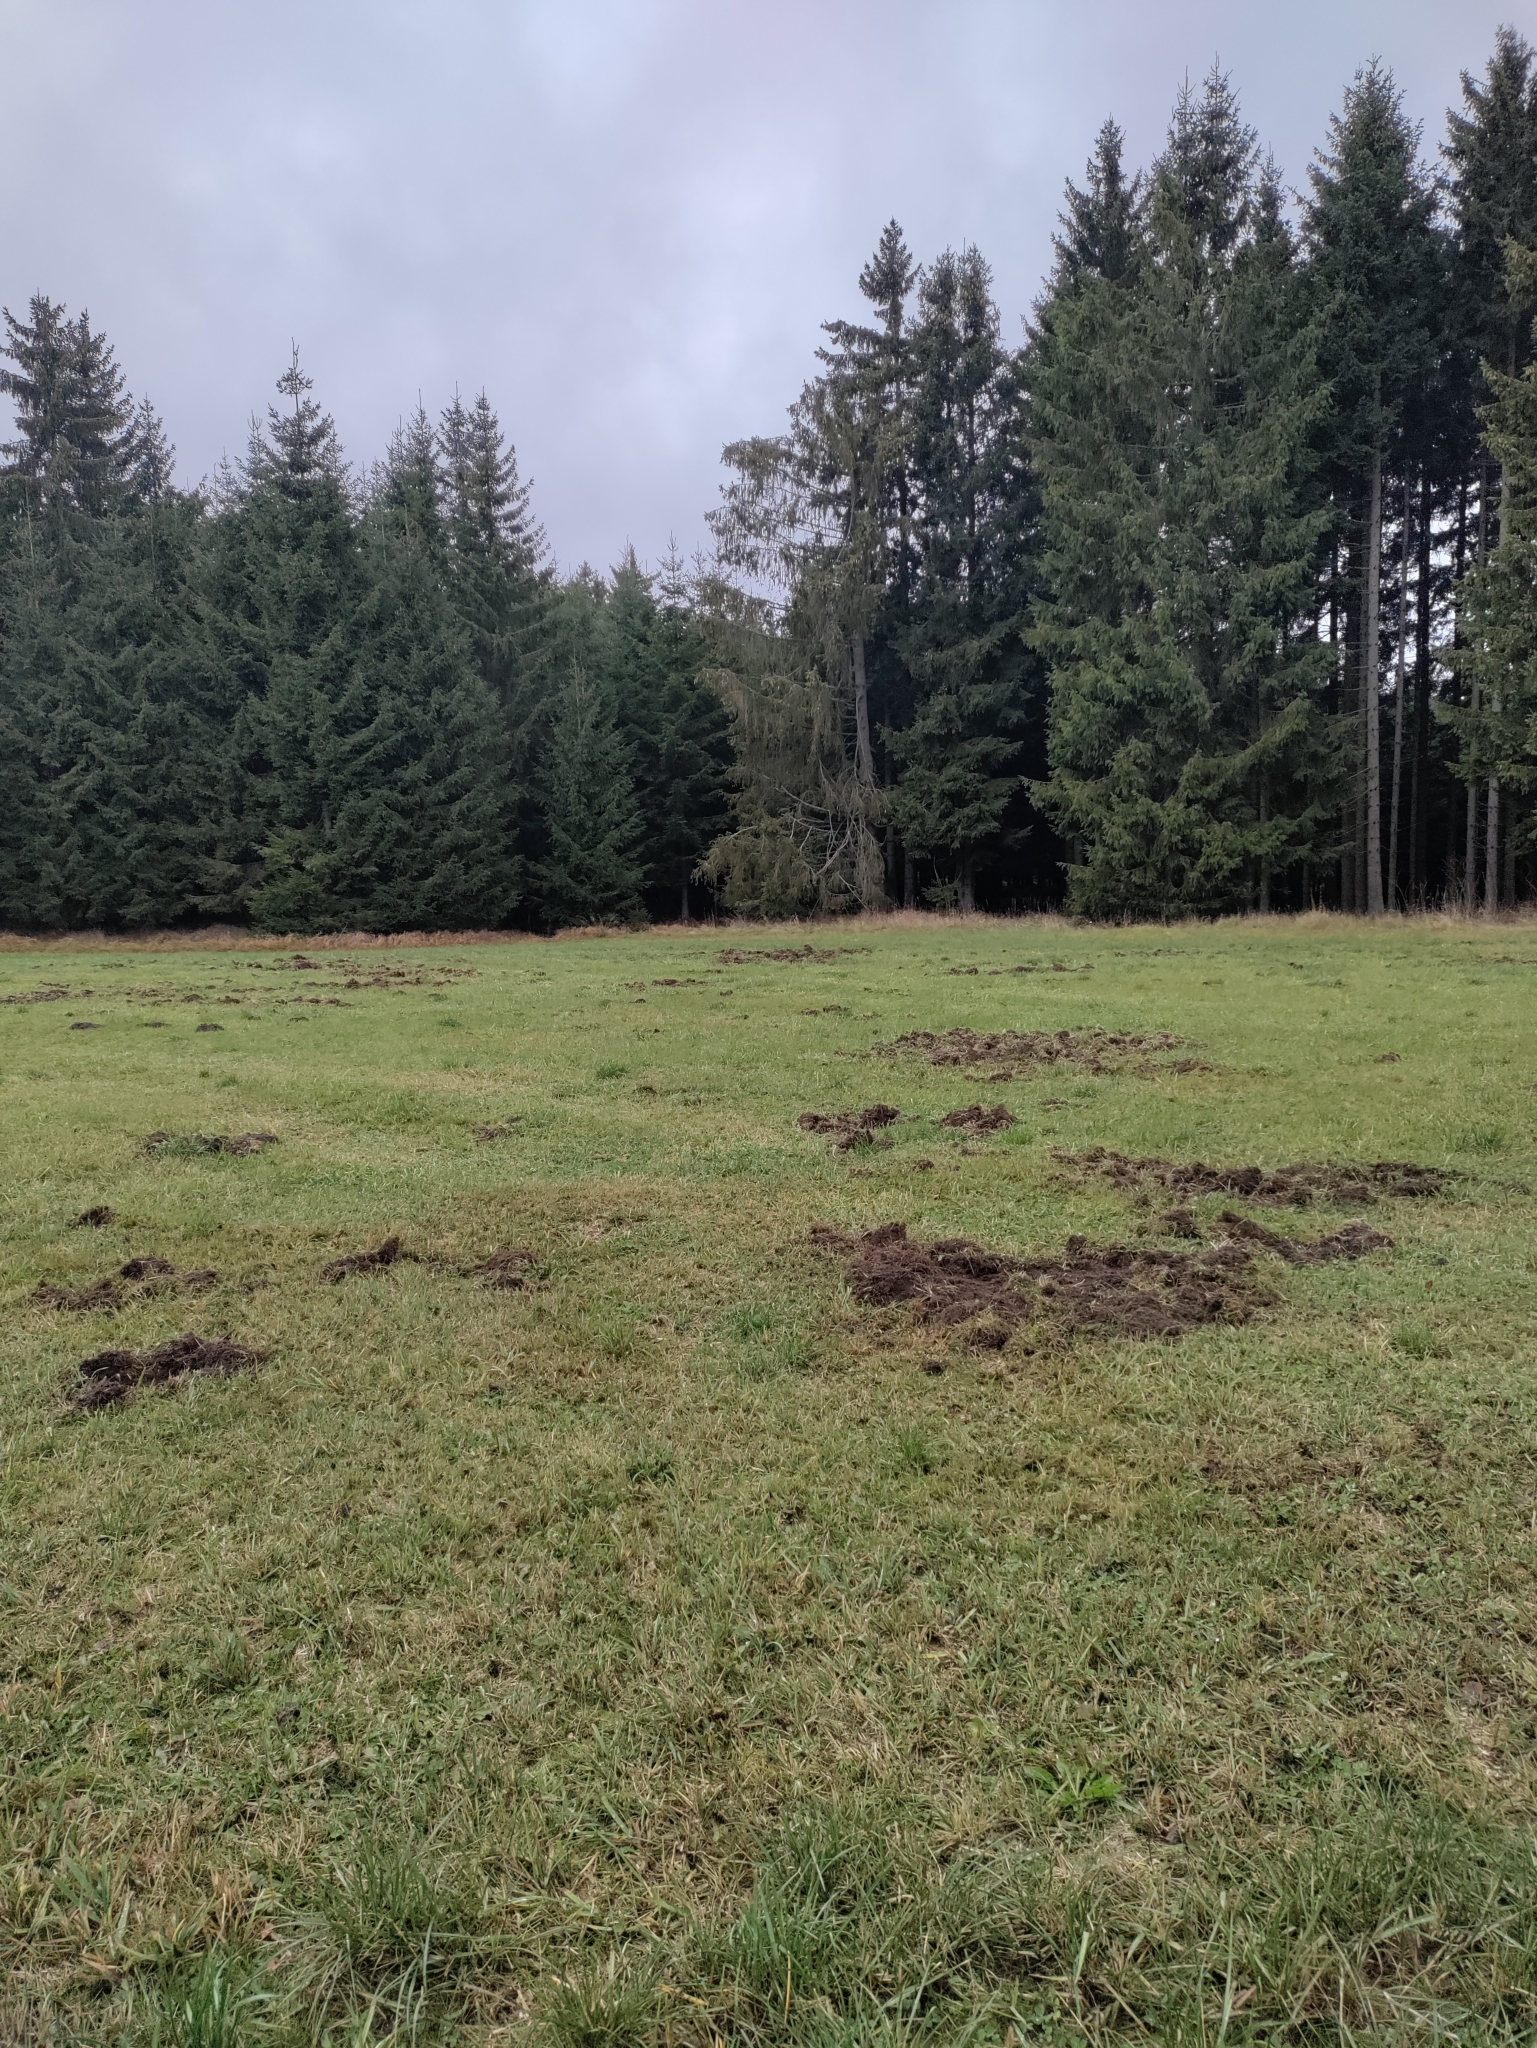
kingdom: Animalia
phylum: Chordata
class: Mammalia
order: Artiodactyla
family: Suidae
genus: Sus
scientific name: Sus scrofa
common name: Wild boar
